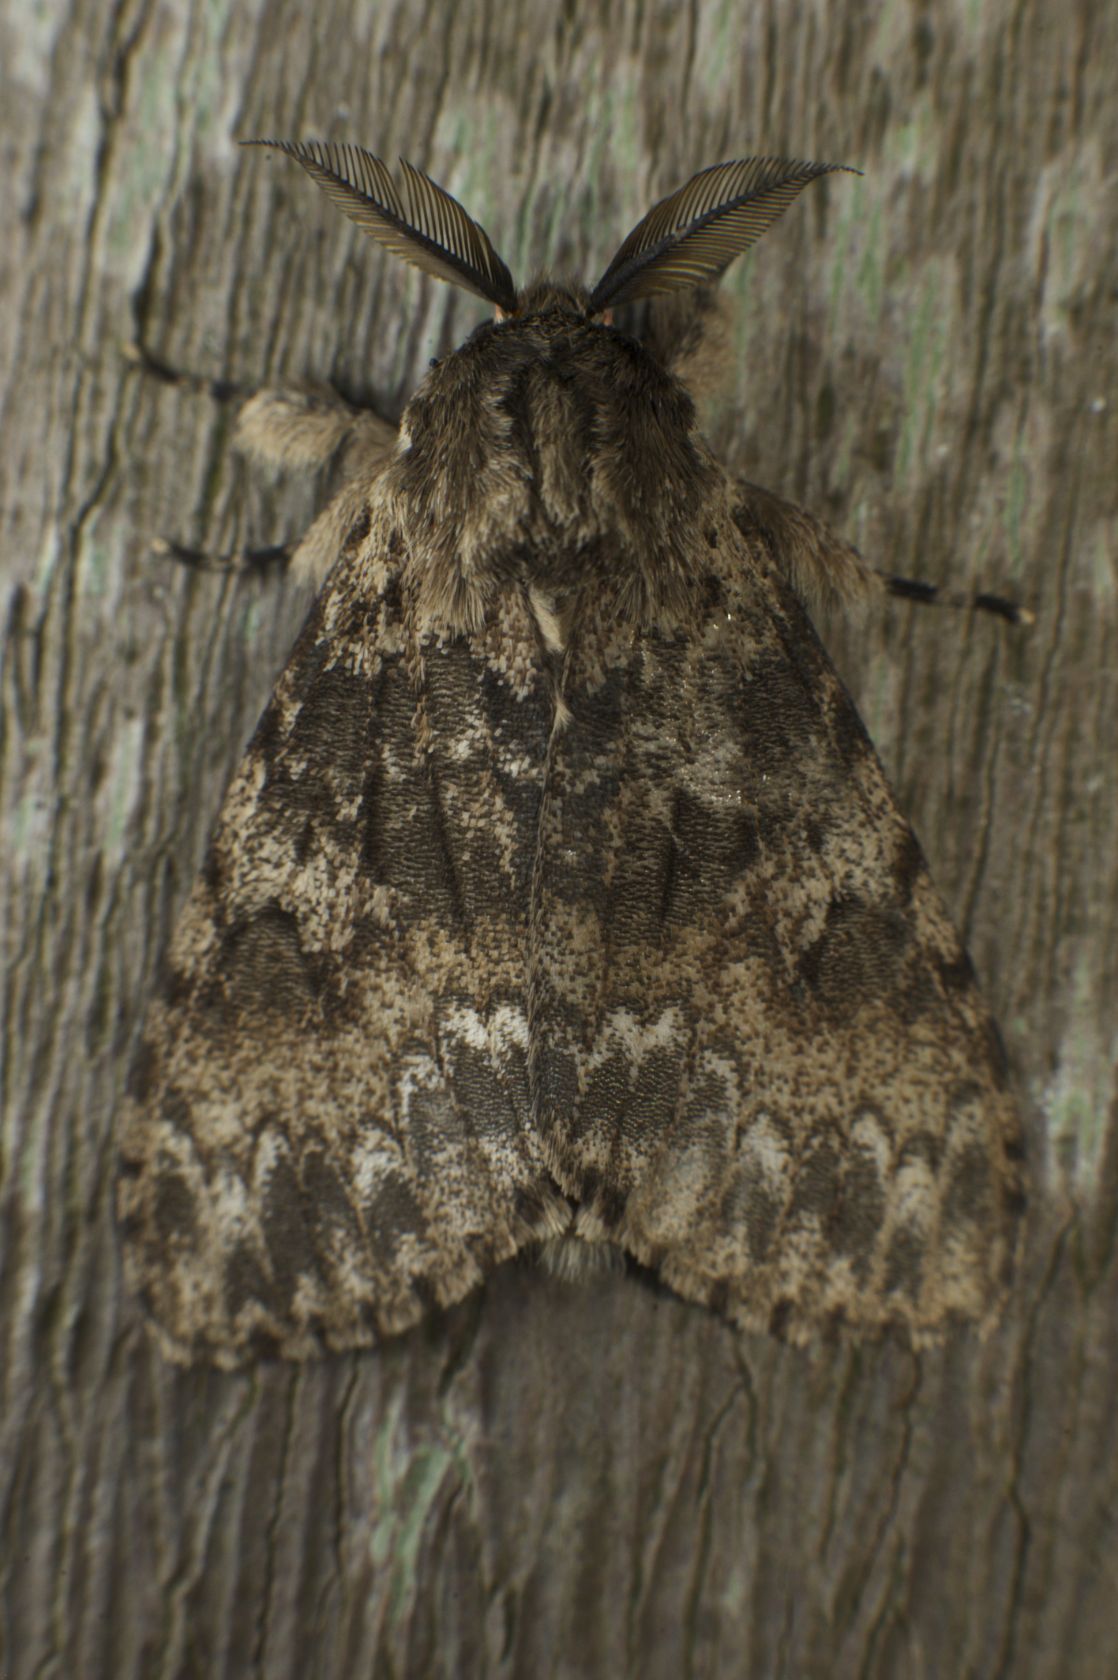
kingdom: Animalia
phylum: Arthropoda
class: Insecta
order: Lepidoptera
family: Erebidae
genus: Lymantria
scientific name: Lymantria serva
